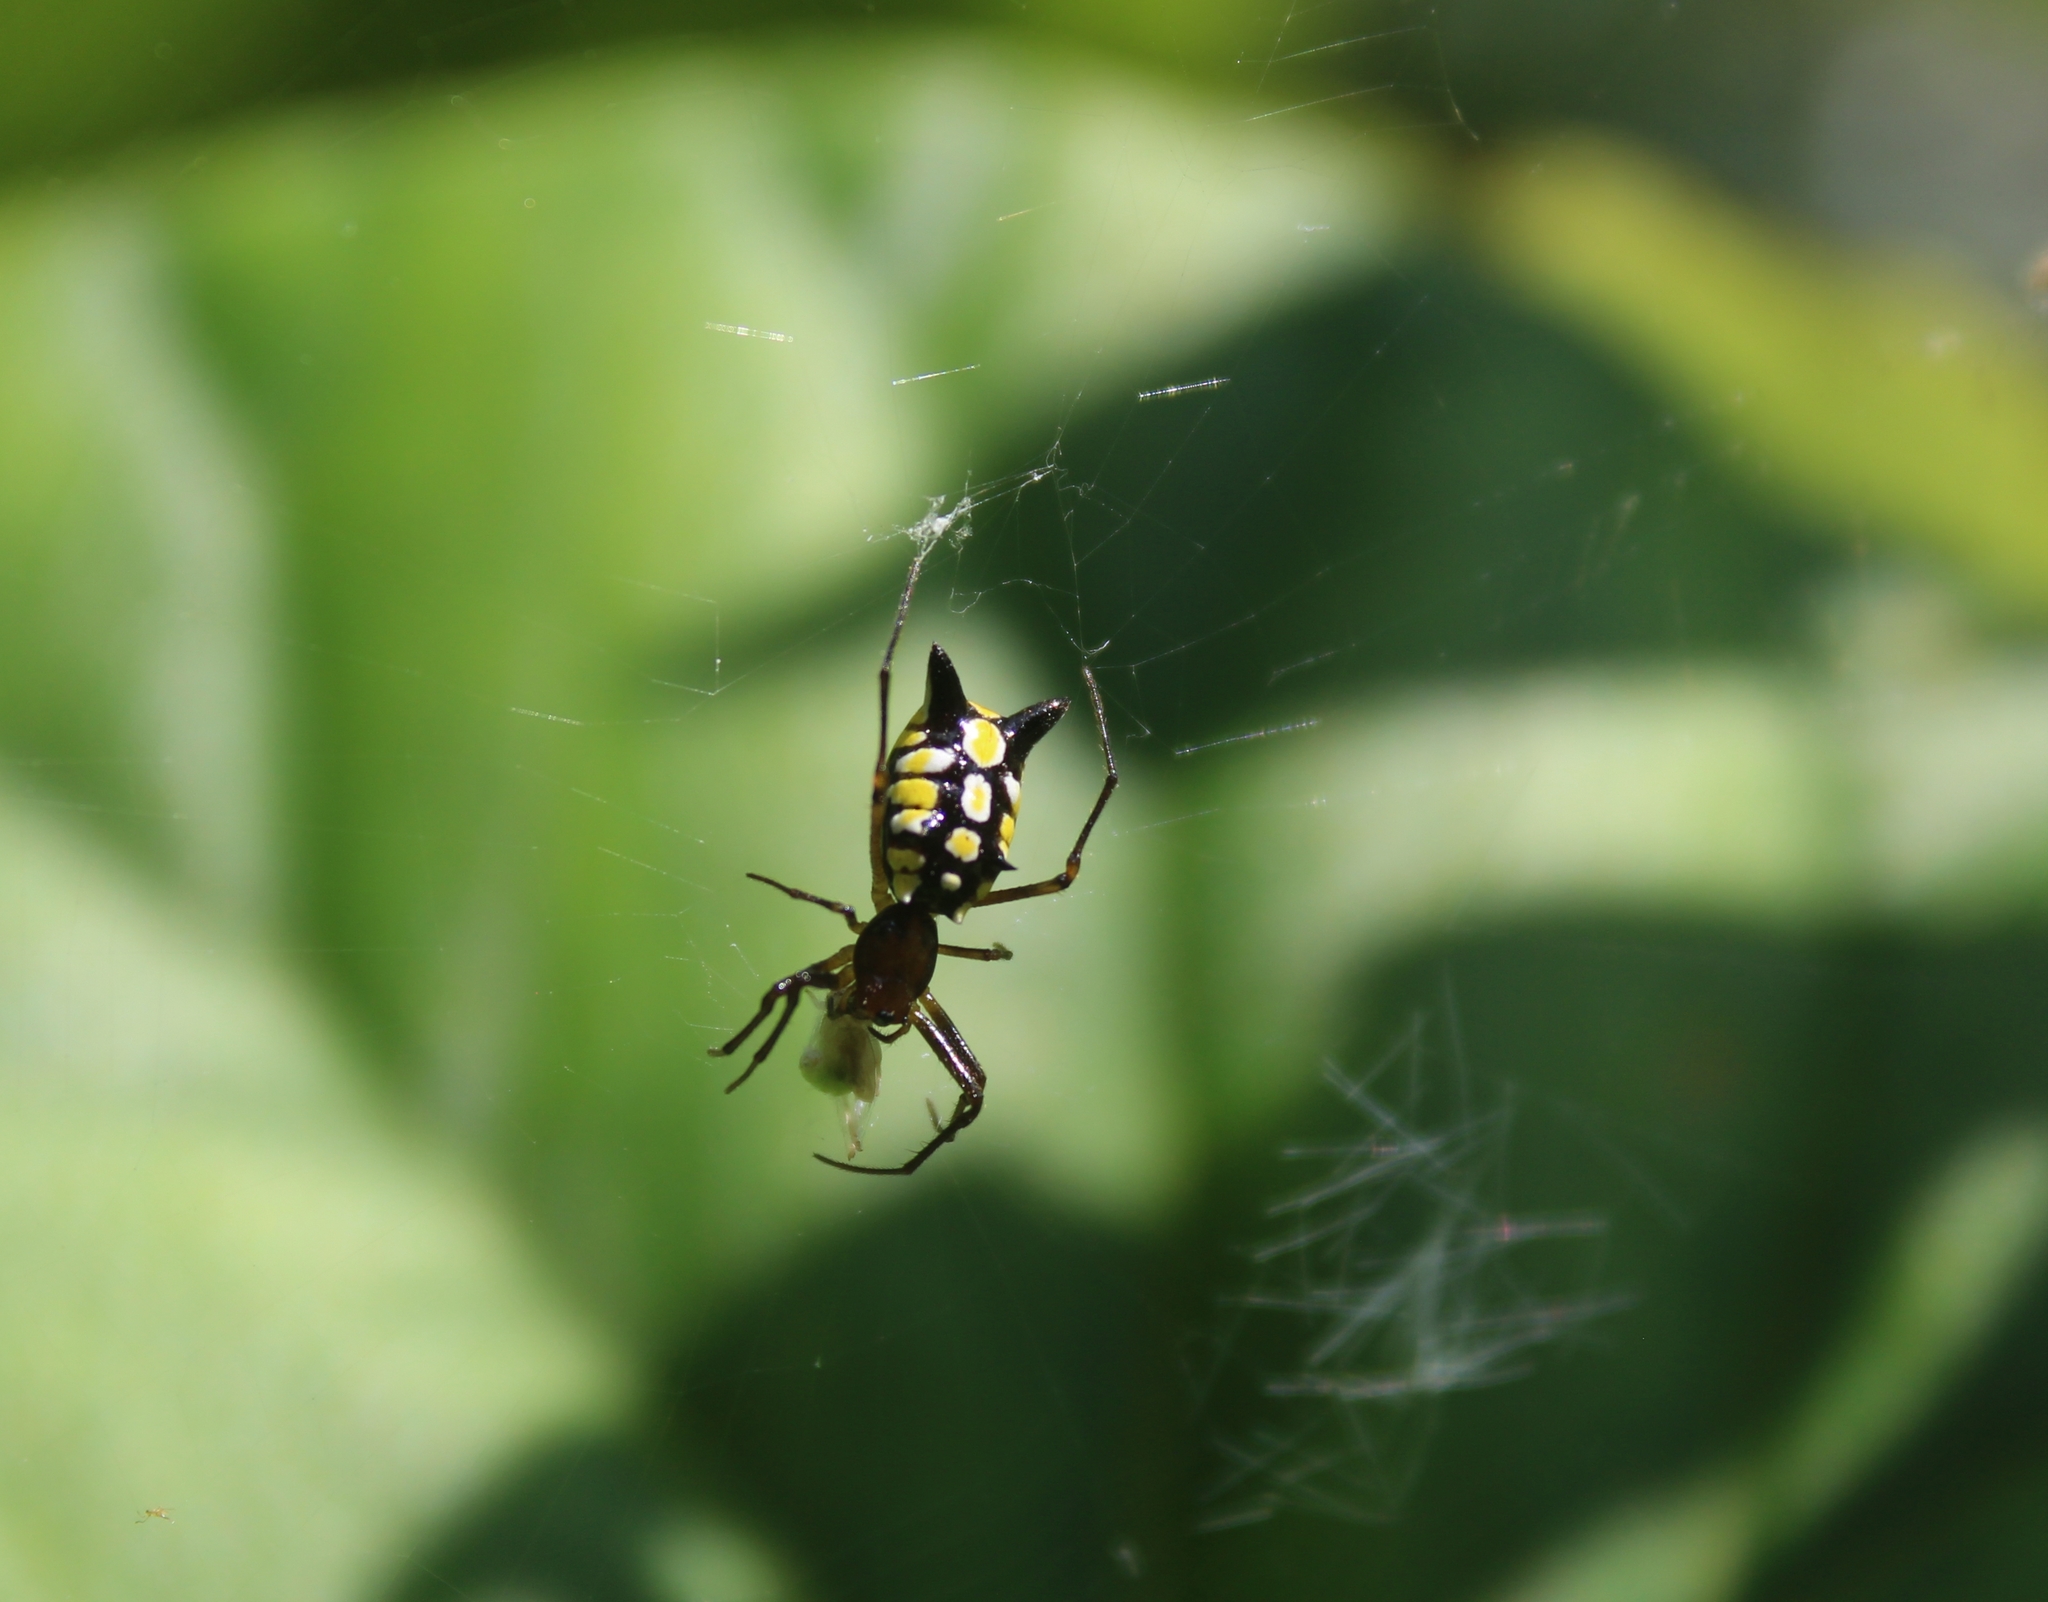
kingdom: Animalia
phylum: Arthropoda
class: Arachnida
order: Araneae
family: Araneidae
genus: Micrathena
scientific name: Micrathena funebris
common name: Orb weavers
